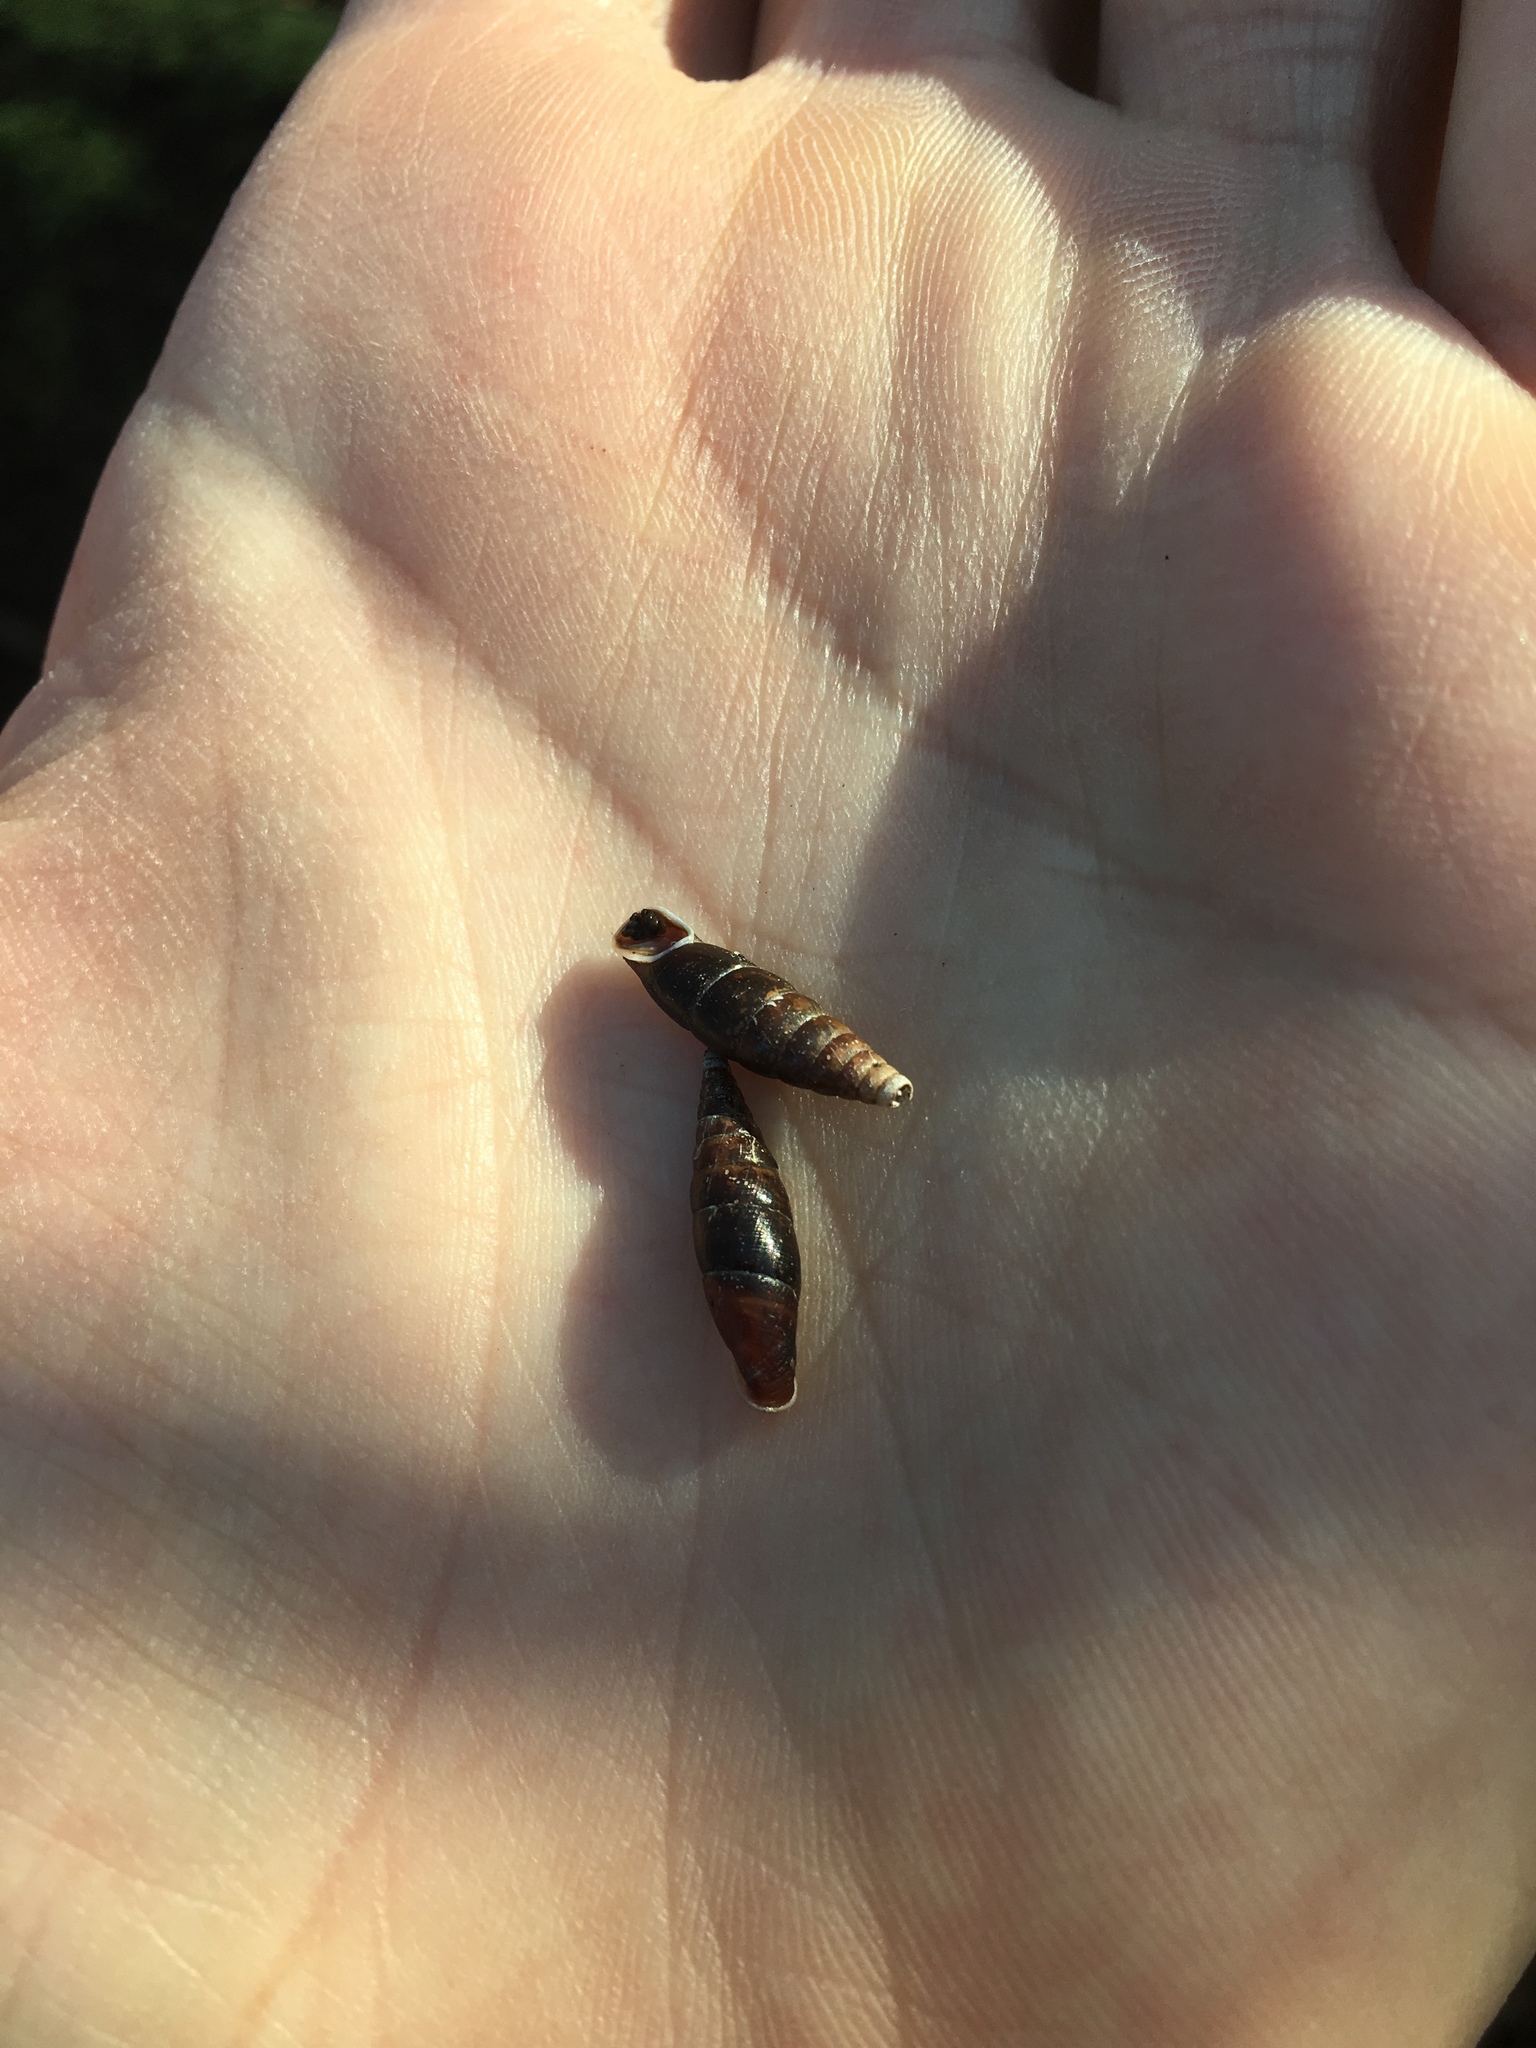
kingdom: Animalia
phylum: Mollusca
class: Gastropoda
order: Stylommatophora
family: Clausiliidae
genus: Cochlodina
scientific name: Cochlodina laminata
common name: Plaited door snail
